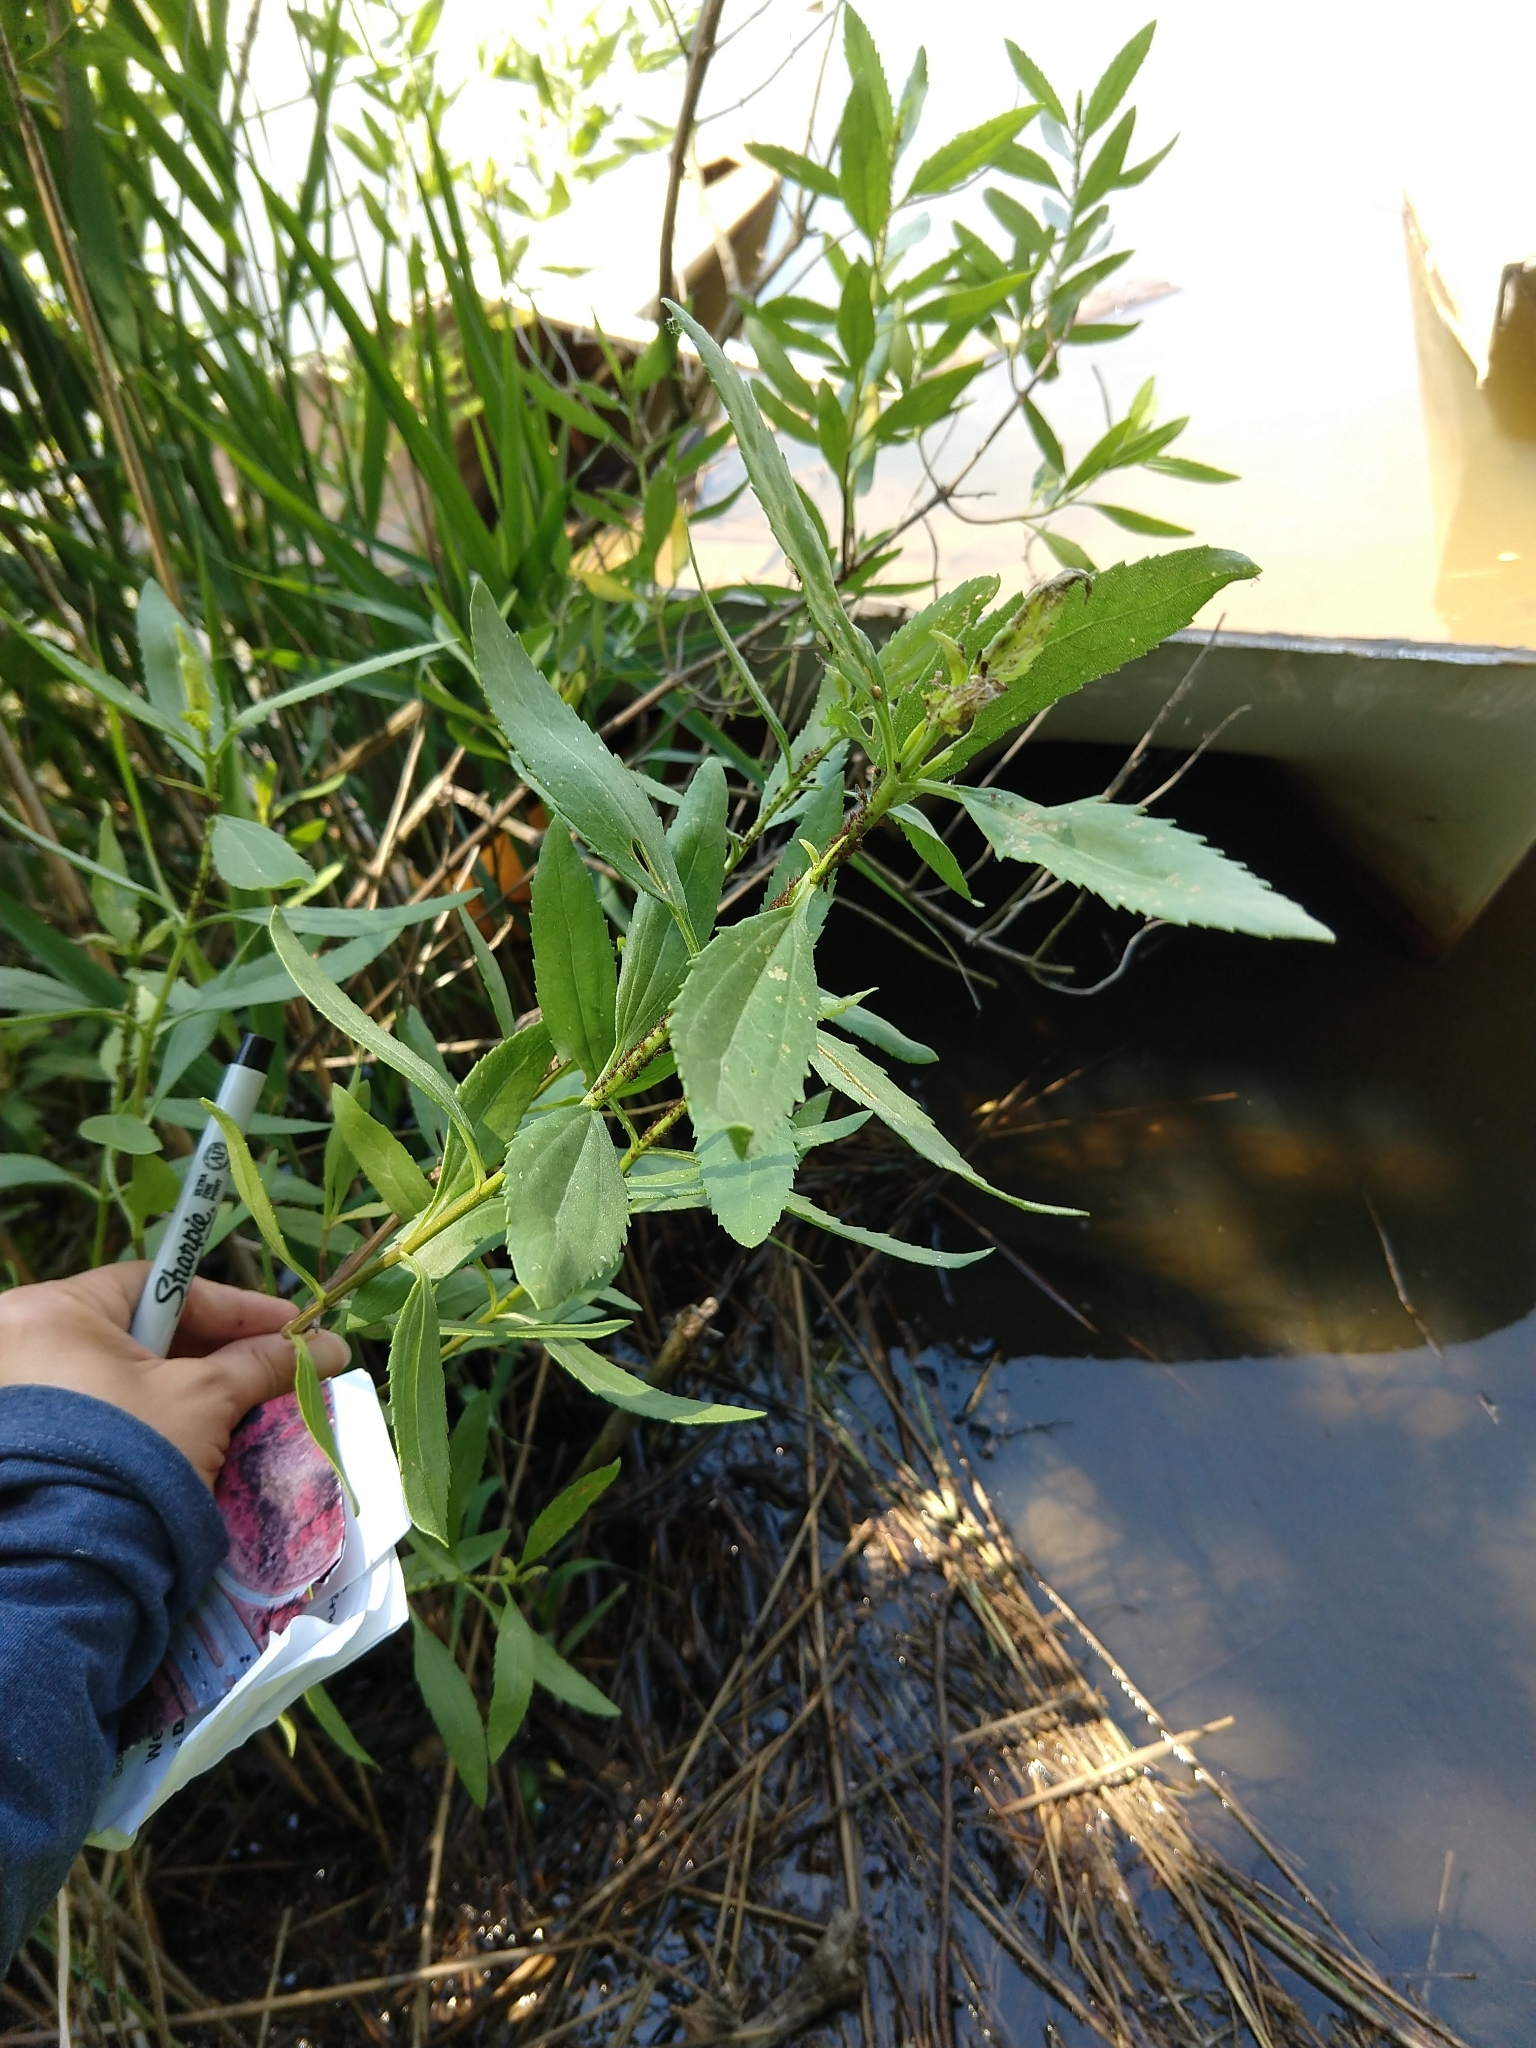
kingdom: Plantae
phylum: Tracheophyta
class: Magnoliopsida
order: Asterales
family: Asteraceae
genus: Iva
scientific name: Iva frutescens
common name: Big-leaved marsh-elder
